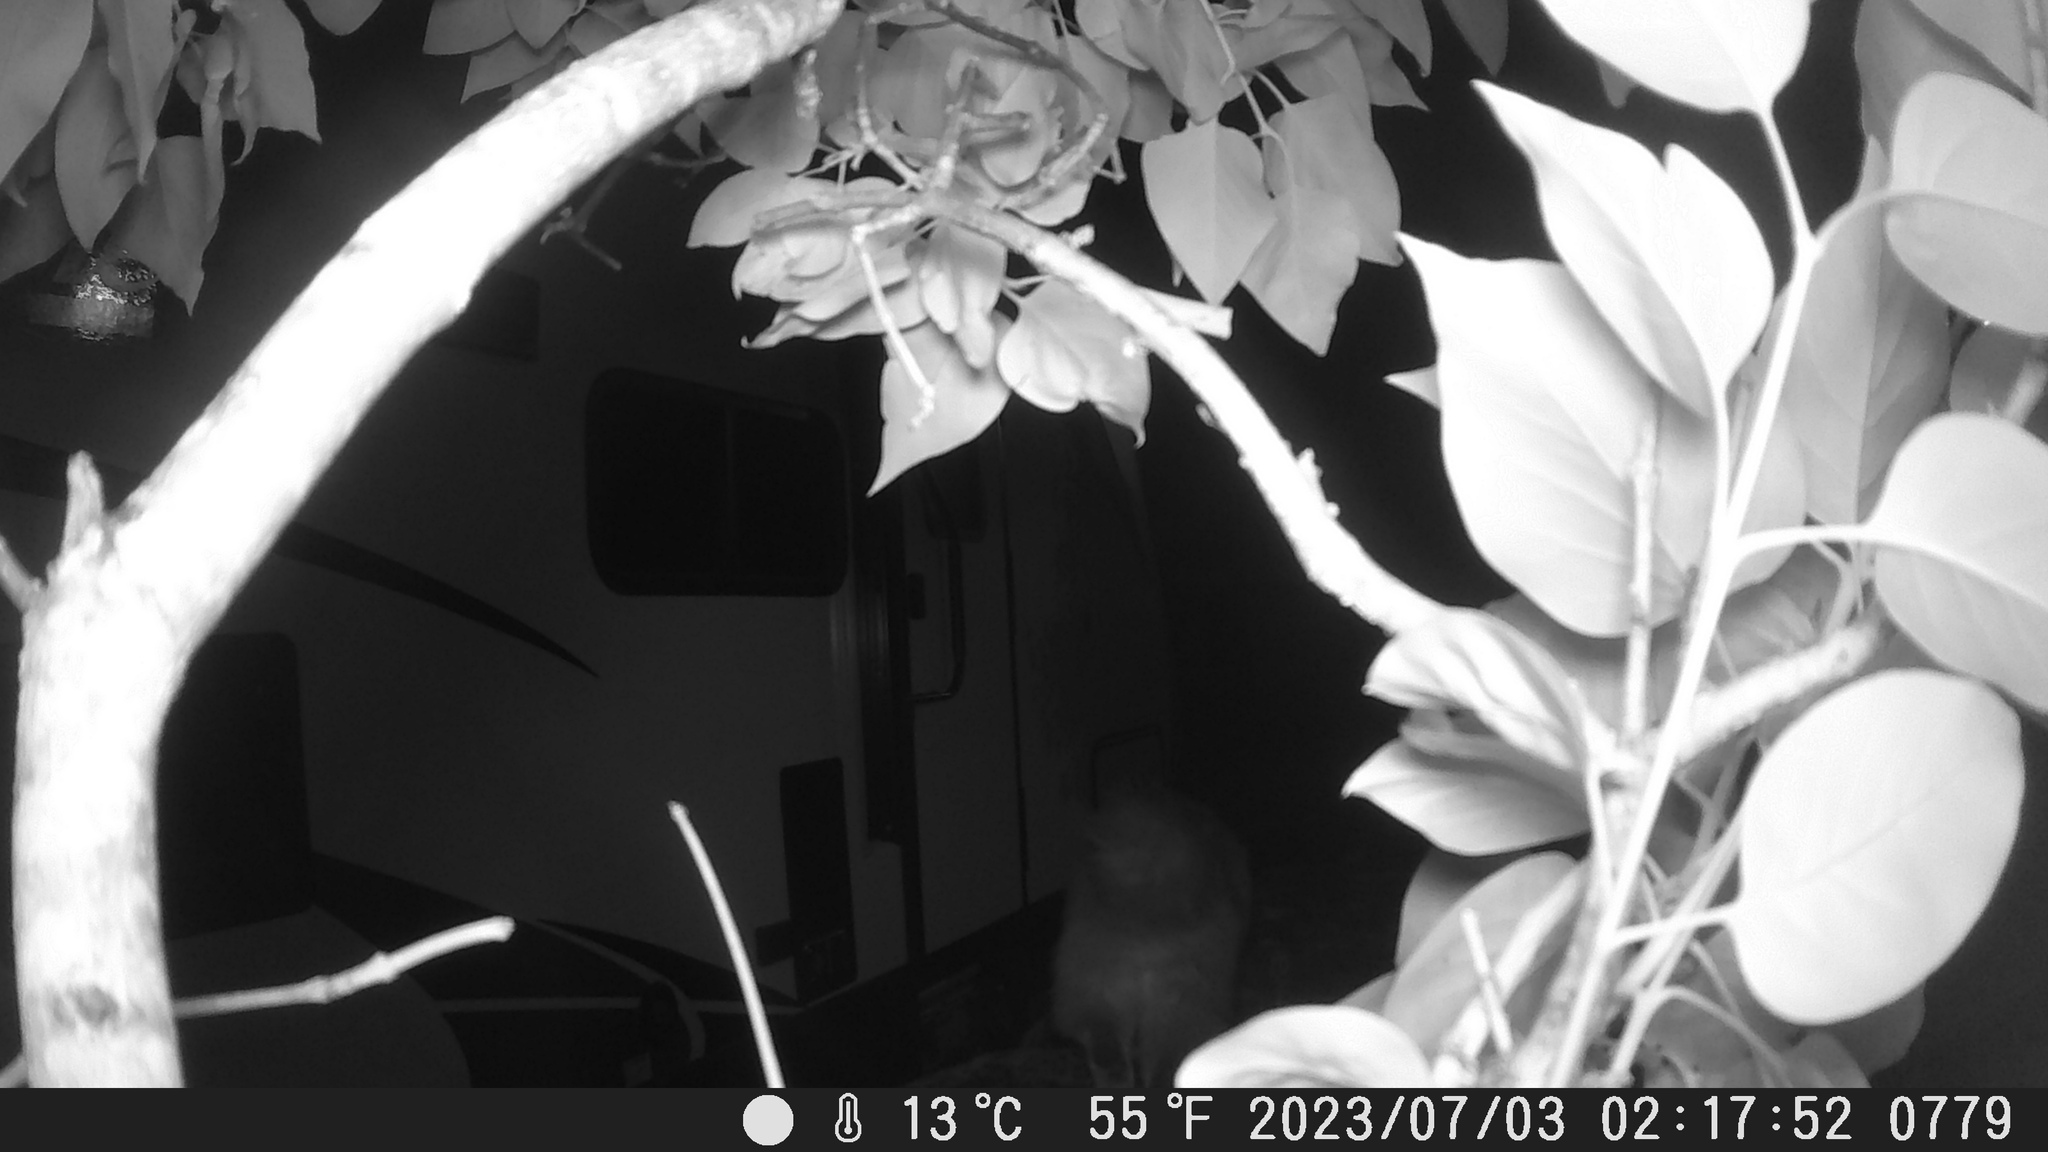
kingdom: Animalia
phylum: Chordata
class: Mammalia
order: Carnivora
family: Felidae
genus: Felis
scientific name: Felis catus
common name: Domestic cat
